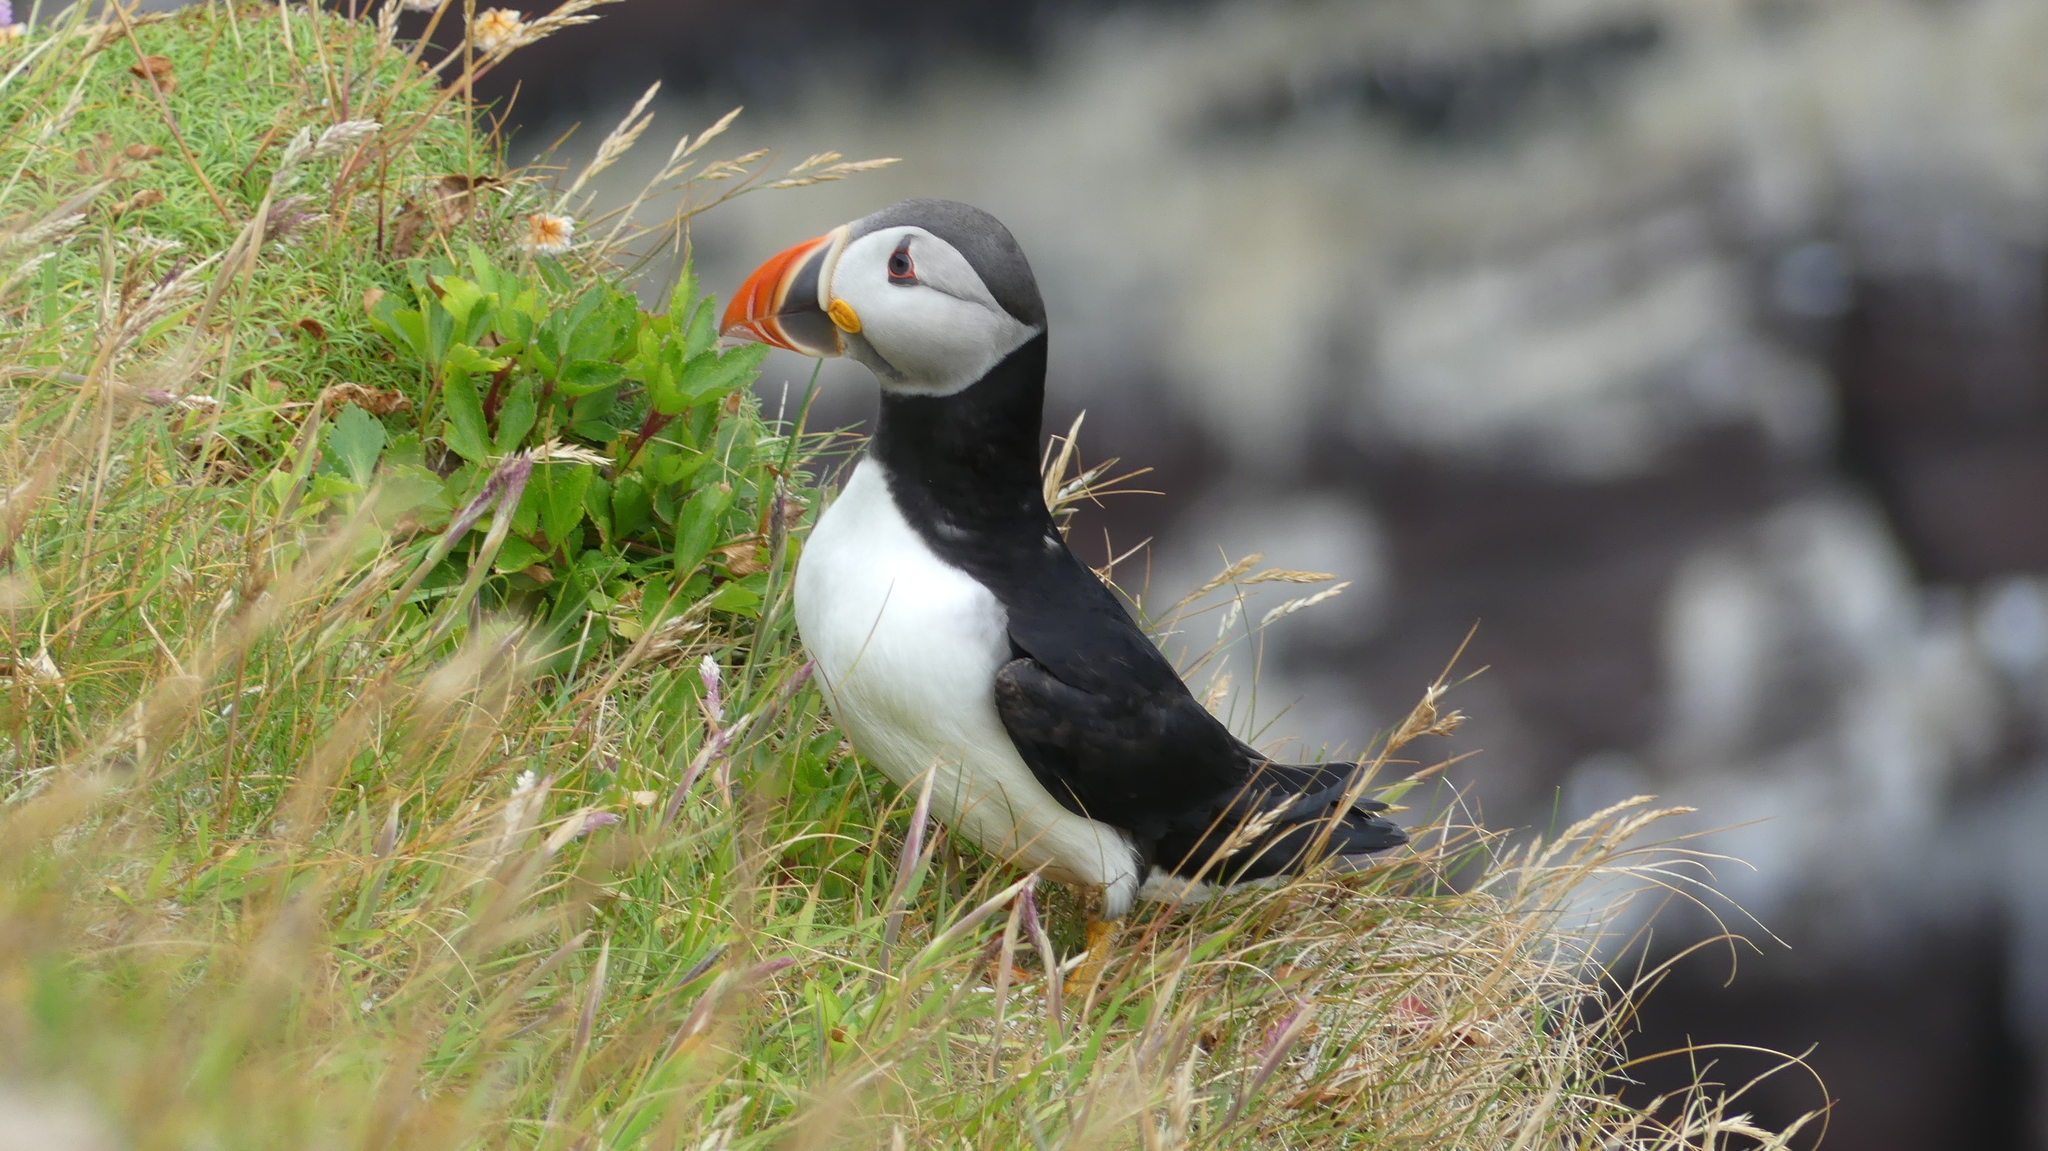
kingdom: Animalia
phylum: Chordata
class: Aves
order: Charadriiformes
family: Alcidae
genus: Fratercula
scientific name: Fratercula arctica
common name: Atlantic puffin
